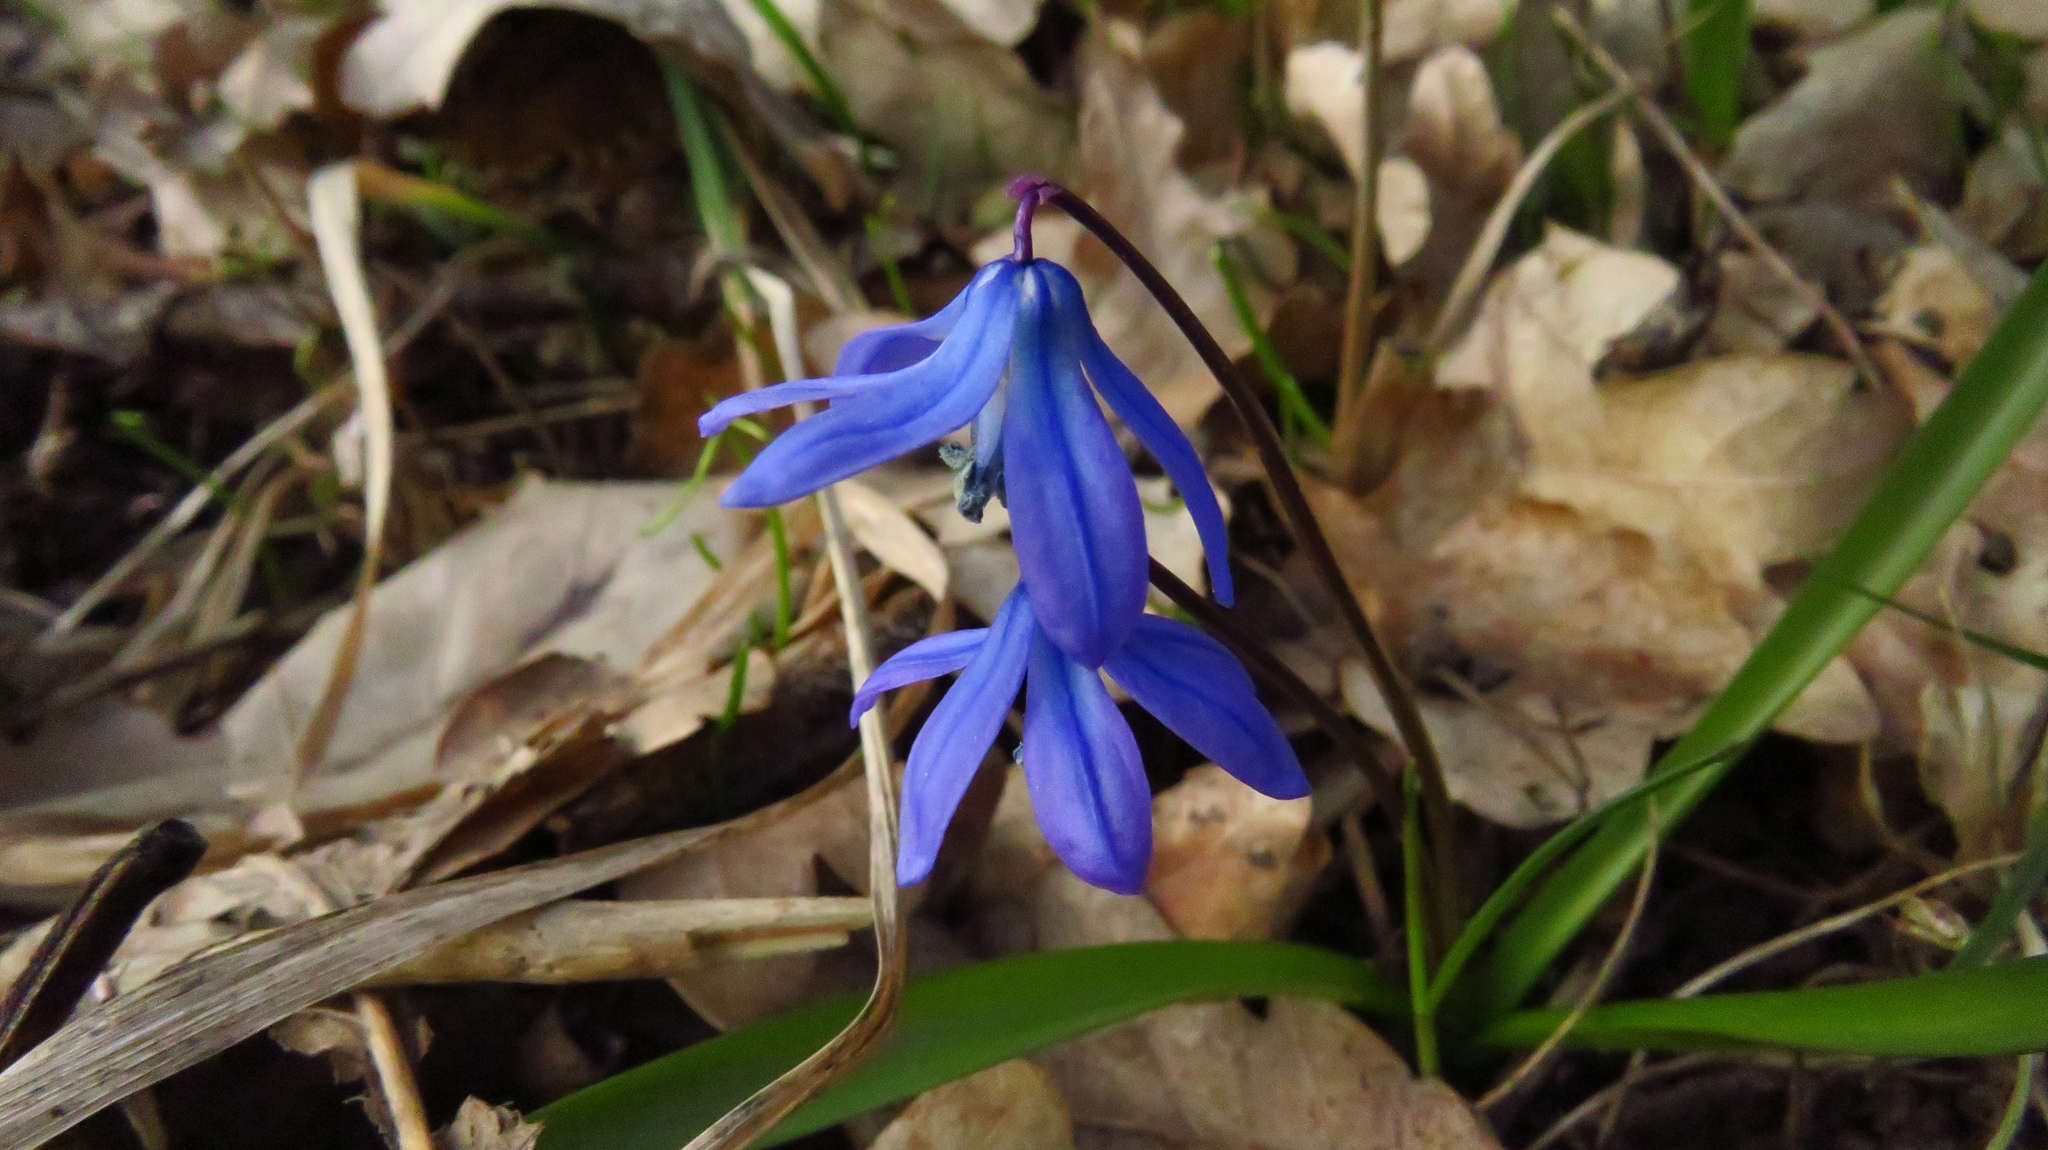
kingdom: Plantae
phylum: Tracheophyta
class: Liliopsida
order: Asparagales
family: Asparagaceae
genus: Scilla
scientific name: Scilla siberica
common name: Siberian squill
